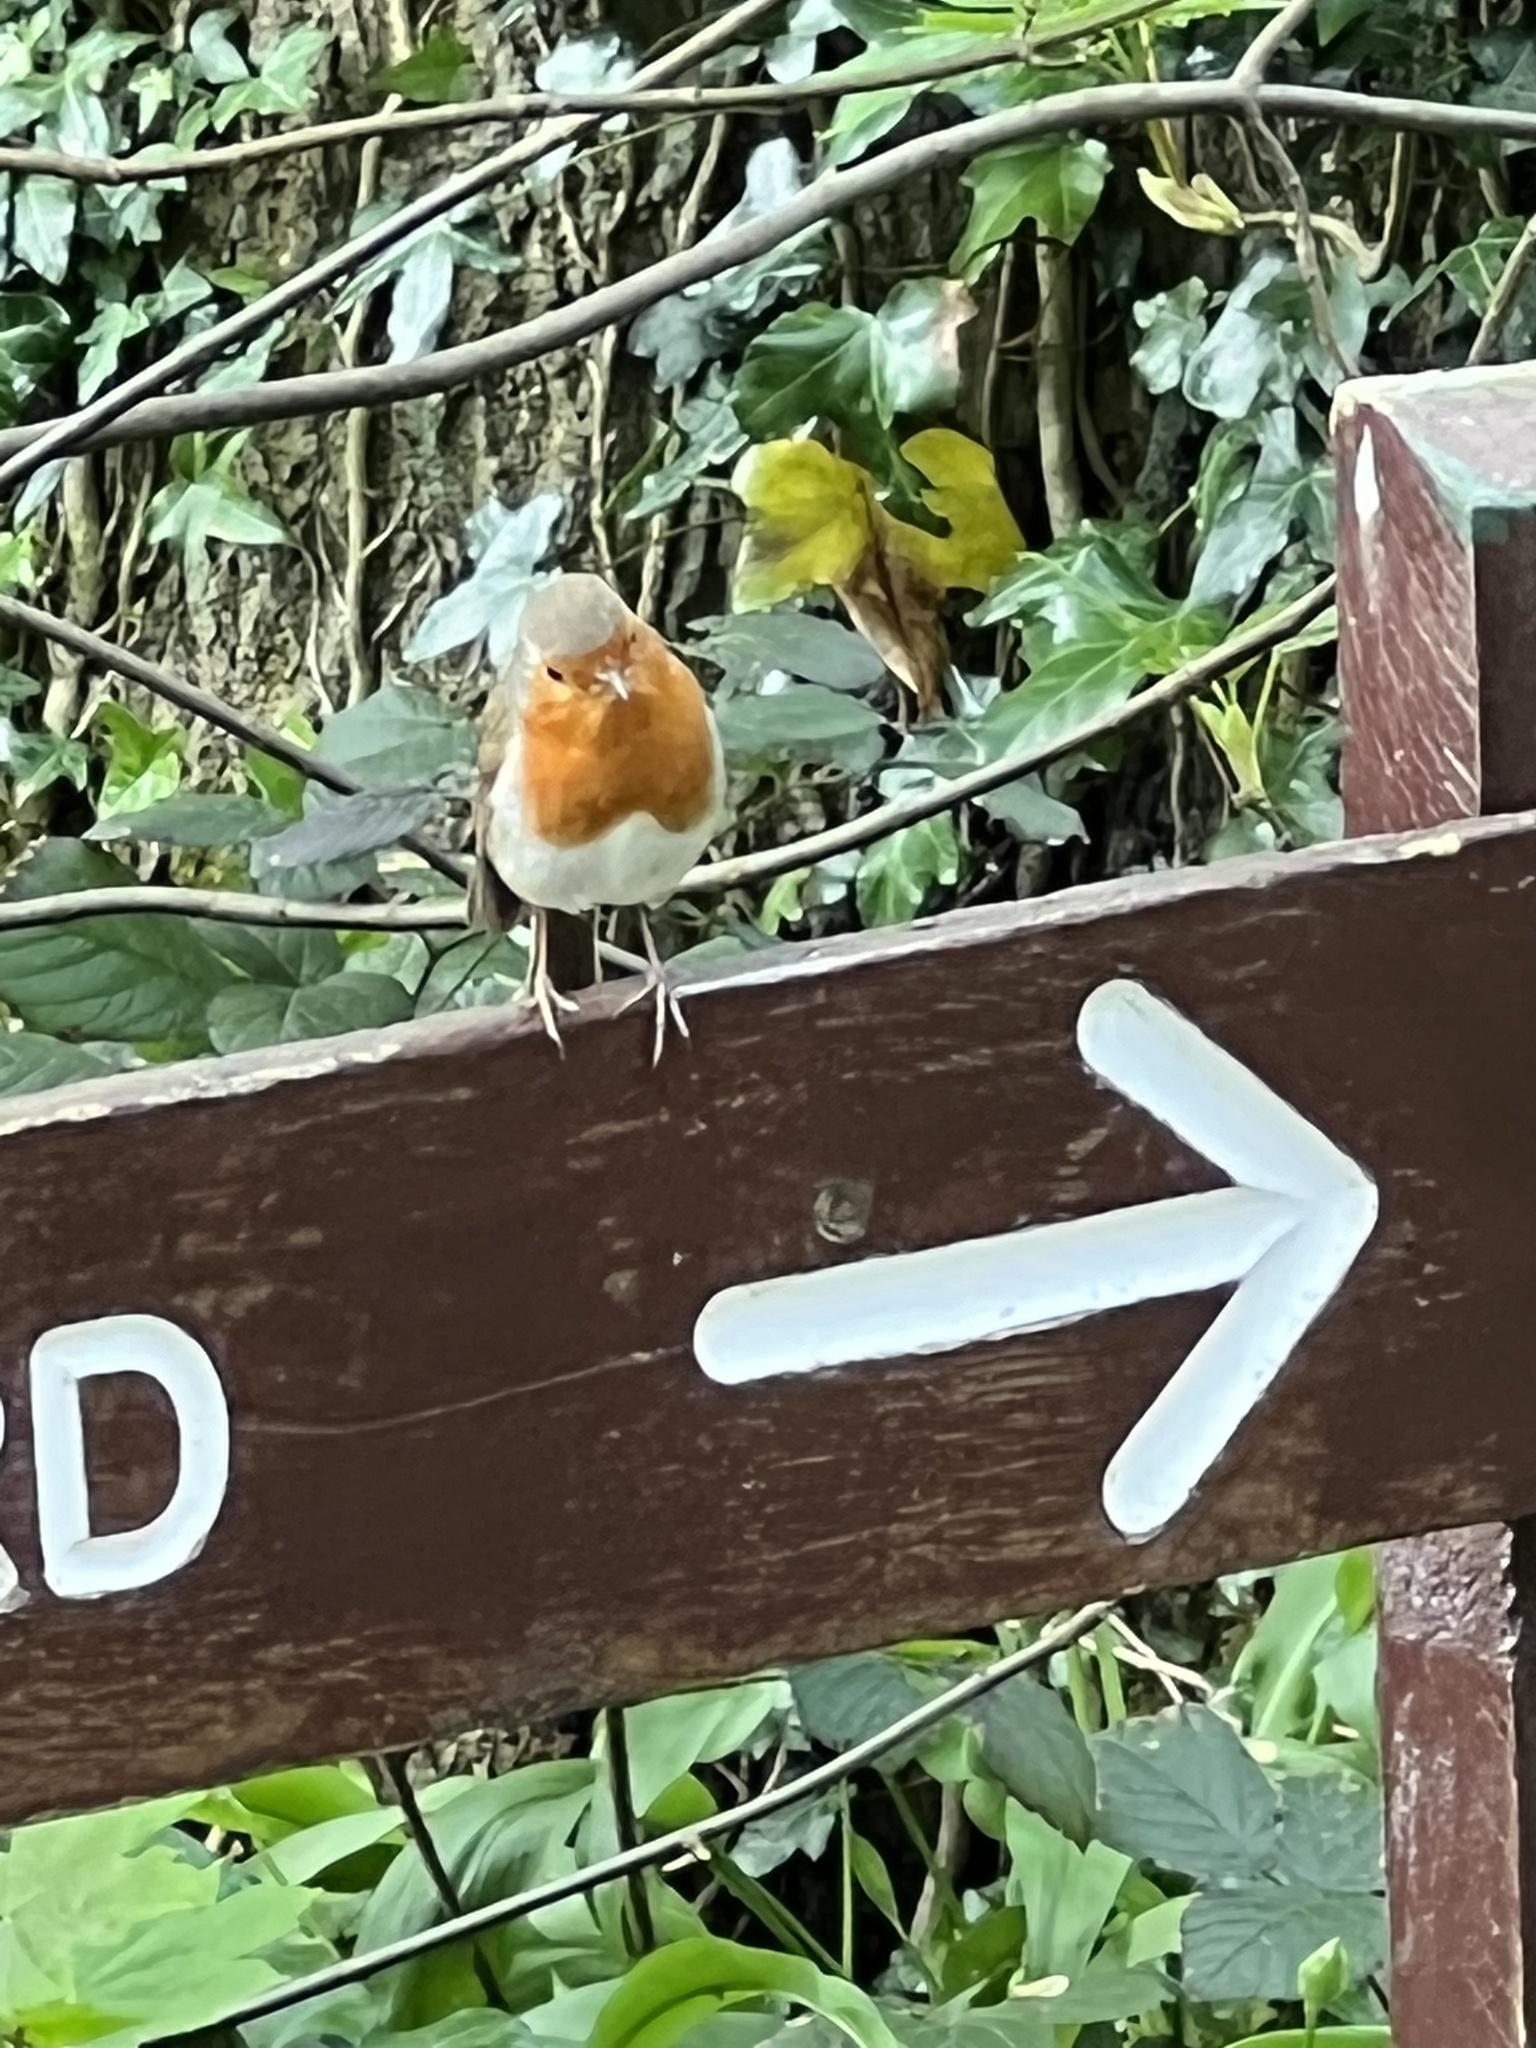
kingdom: Animalia
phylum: Chordata
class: Aves
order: Passeriformes
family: Muscicapidae
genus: Erithacus
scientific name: Erithacus rubecula
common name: European robin
